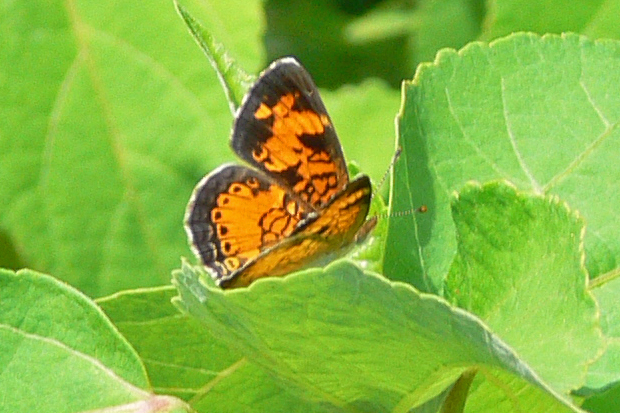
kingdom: Animalia
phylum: Arthropoda
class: Insecta
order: Lepidoptera
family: Nymphalidae
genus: Phyciodes
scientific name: Phyciodes tharos
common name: Pearl crescent
